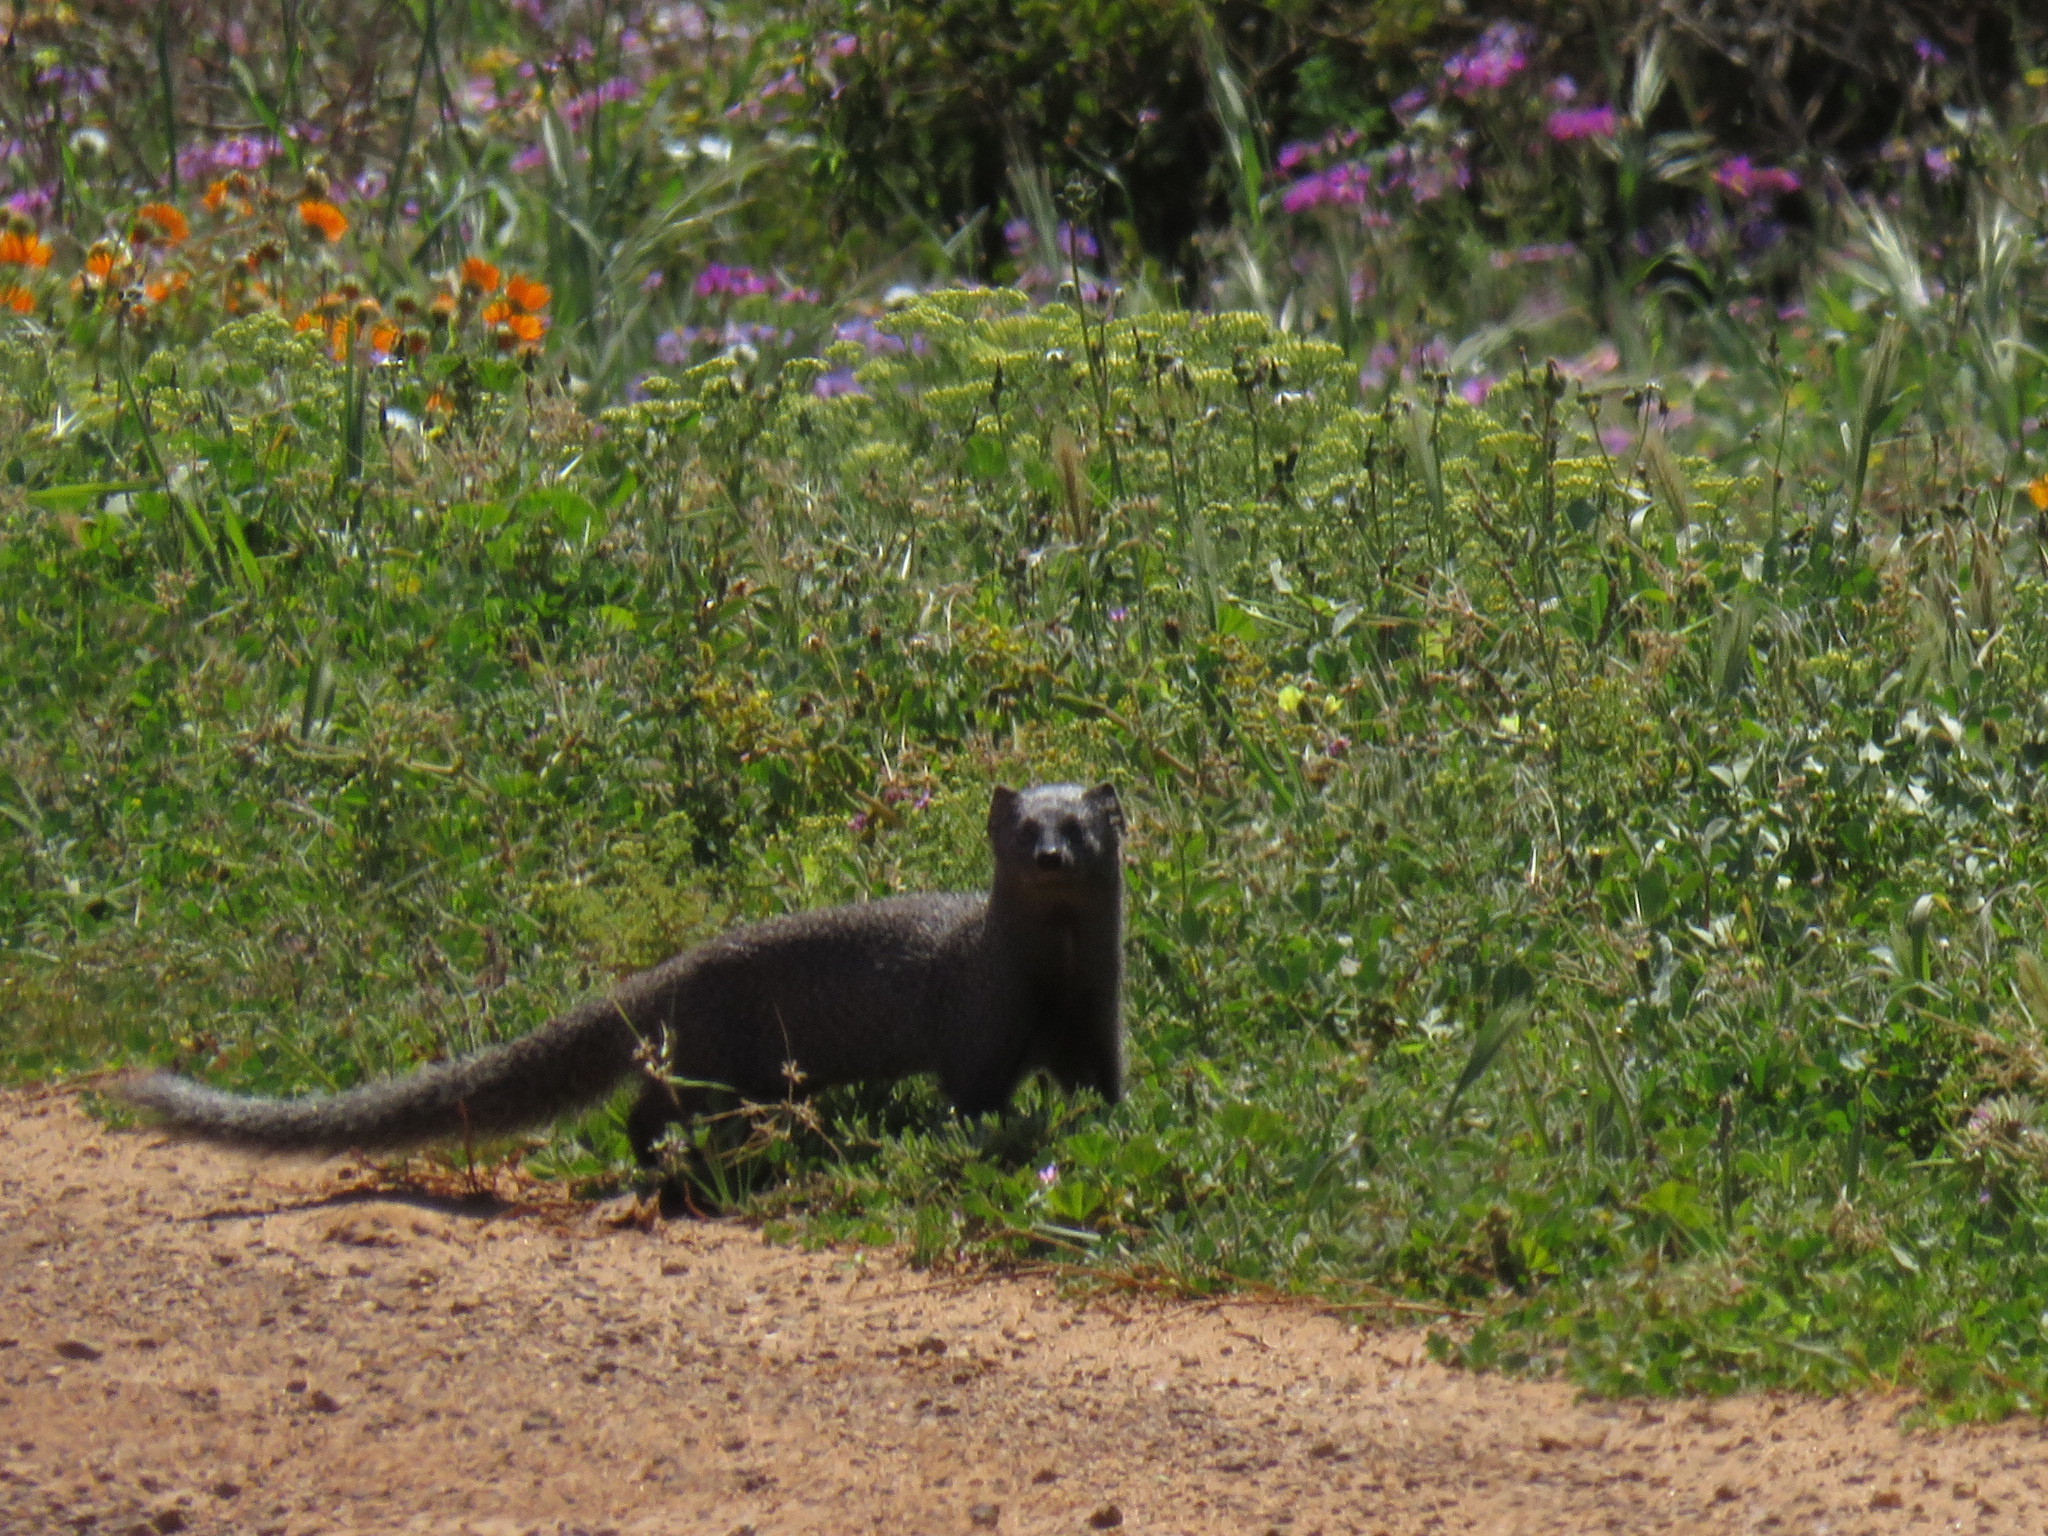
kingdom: Animalia
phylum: Chordata
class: Mammalia
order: Carnivora
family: Herpestidae
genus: Galerella
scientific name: Galerella pulverulenta
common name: Cape gray mongoose
